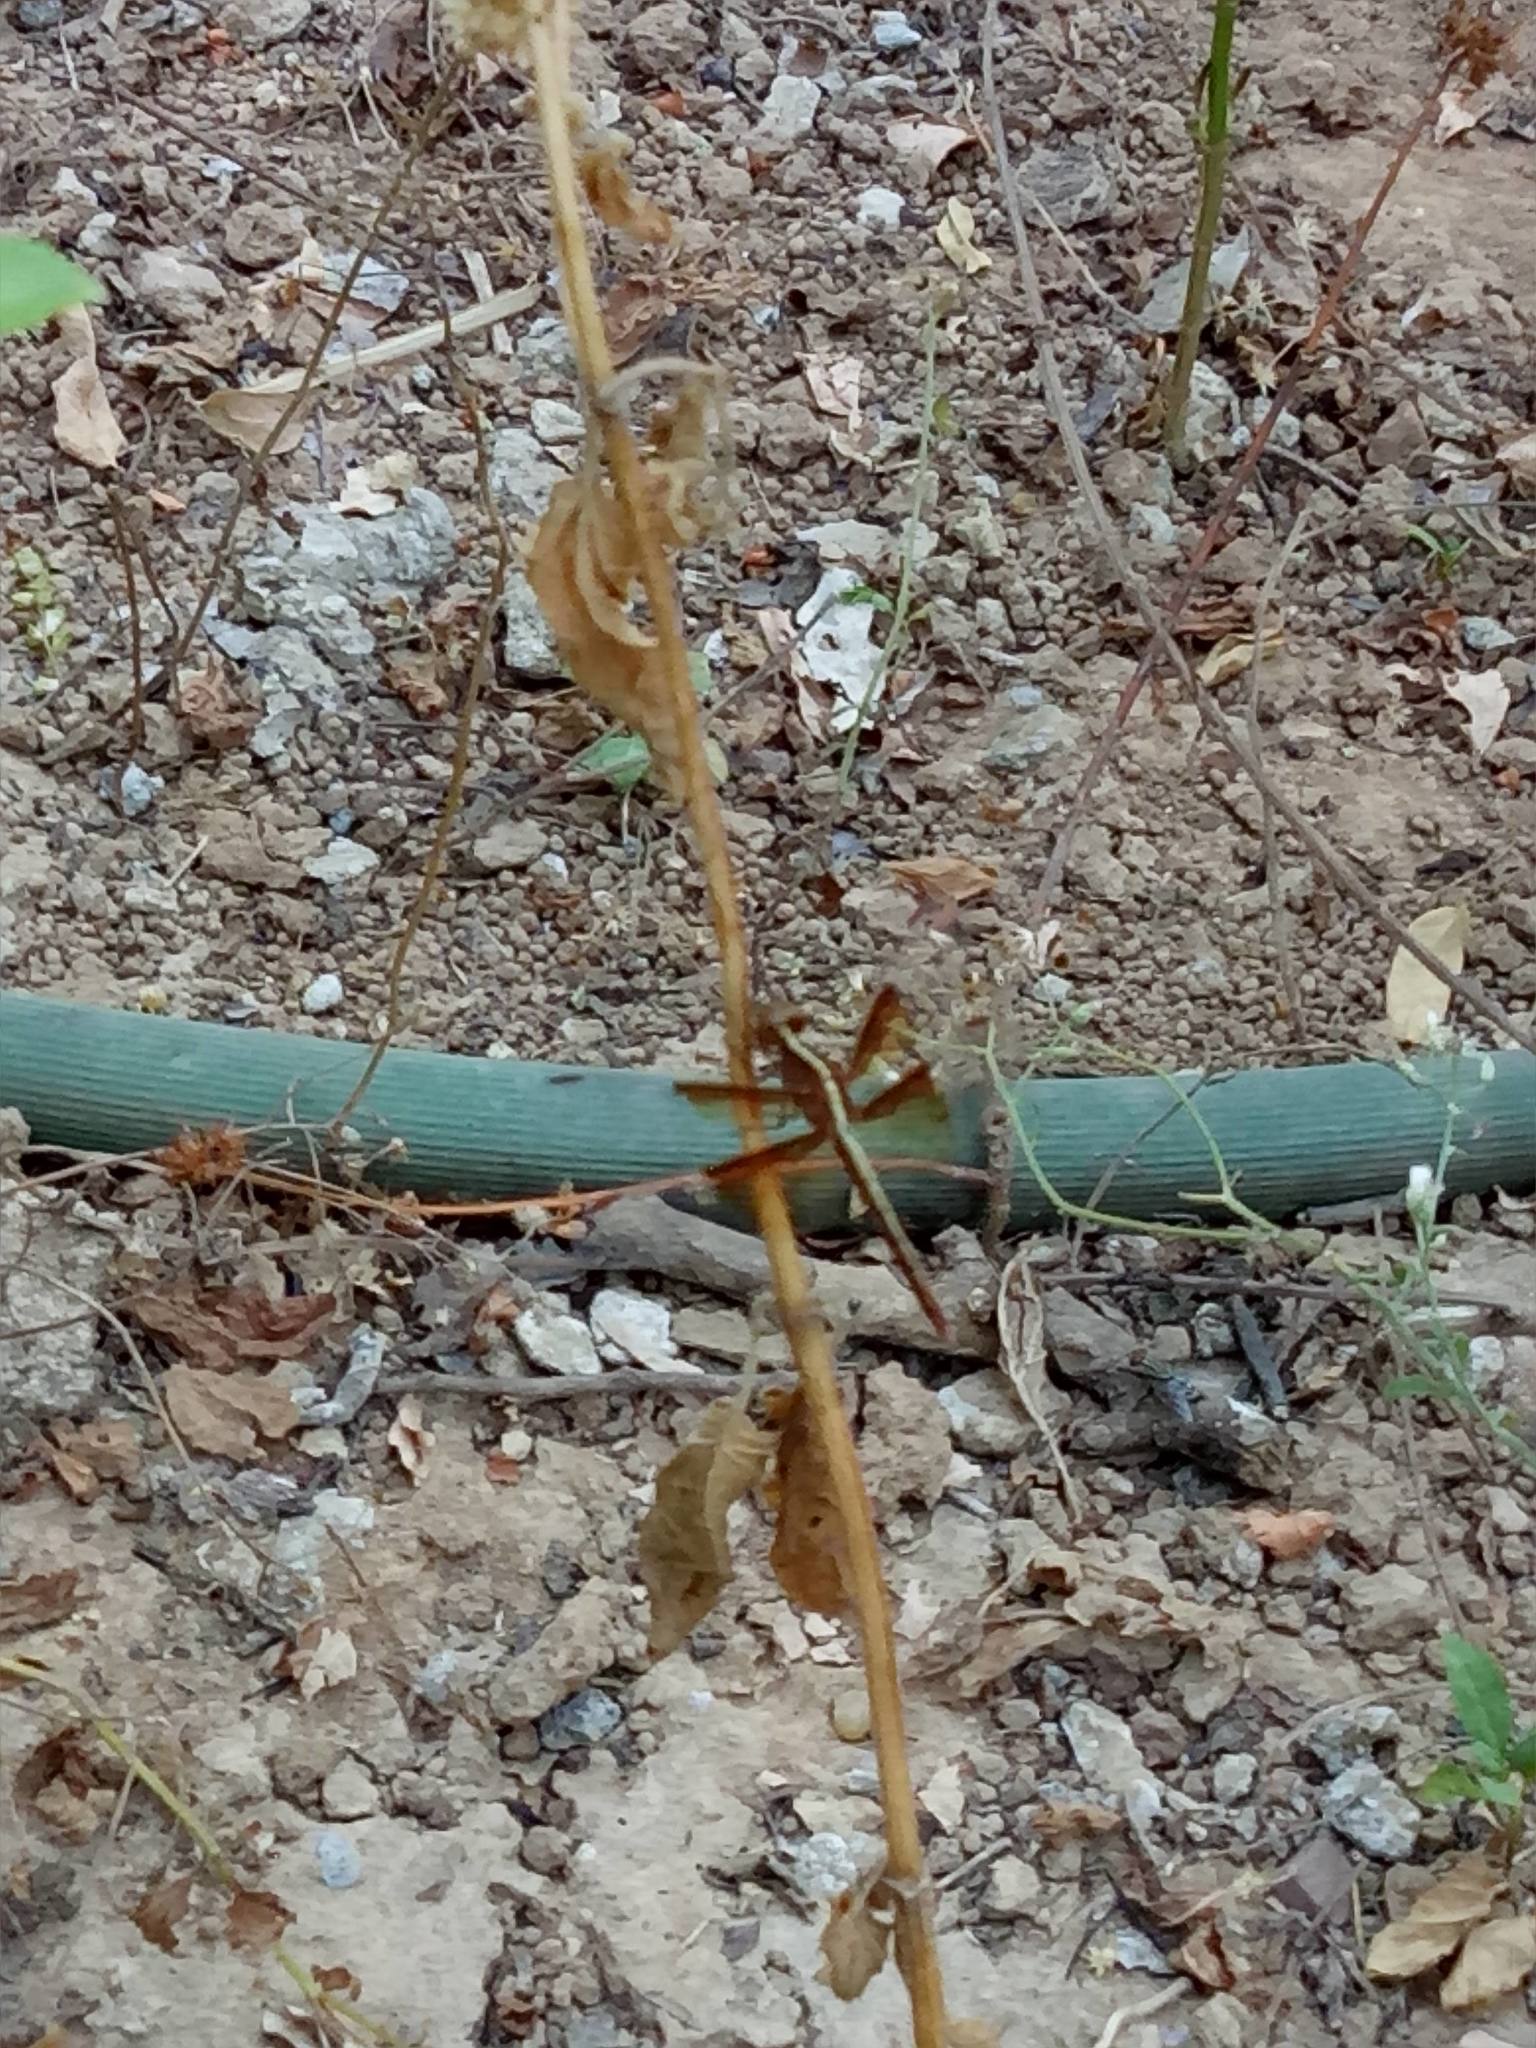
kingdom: Animalia
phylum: Arthropoda
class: Insecta
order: Odonata
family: Libellulidae
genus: Neurothemis
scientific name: Neurothemis tullia
